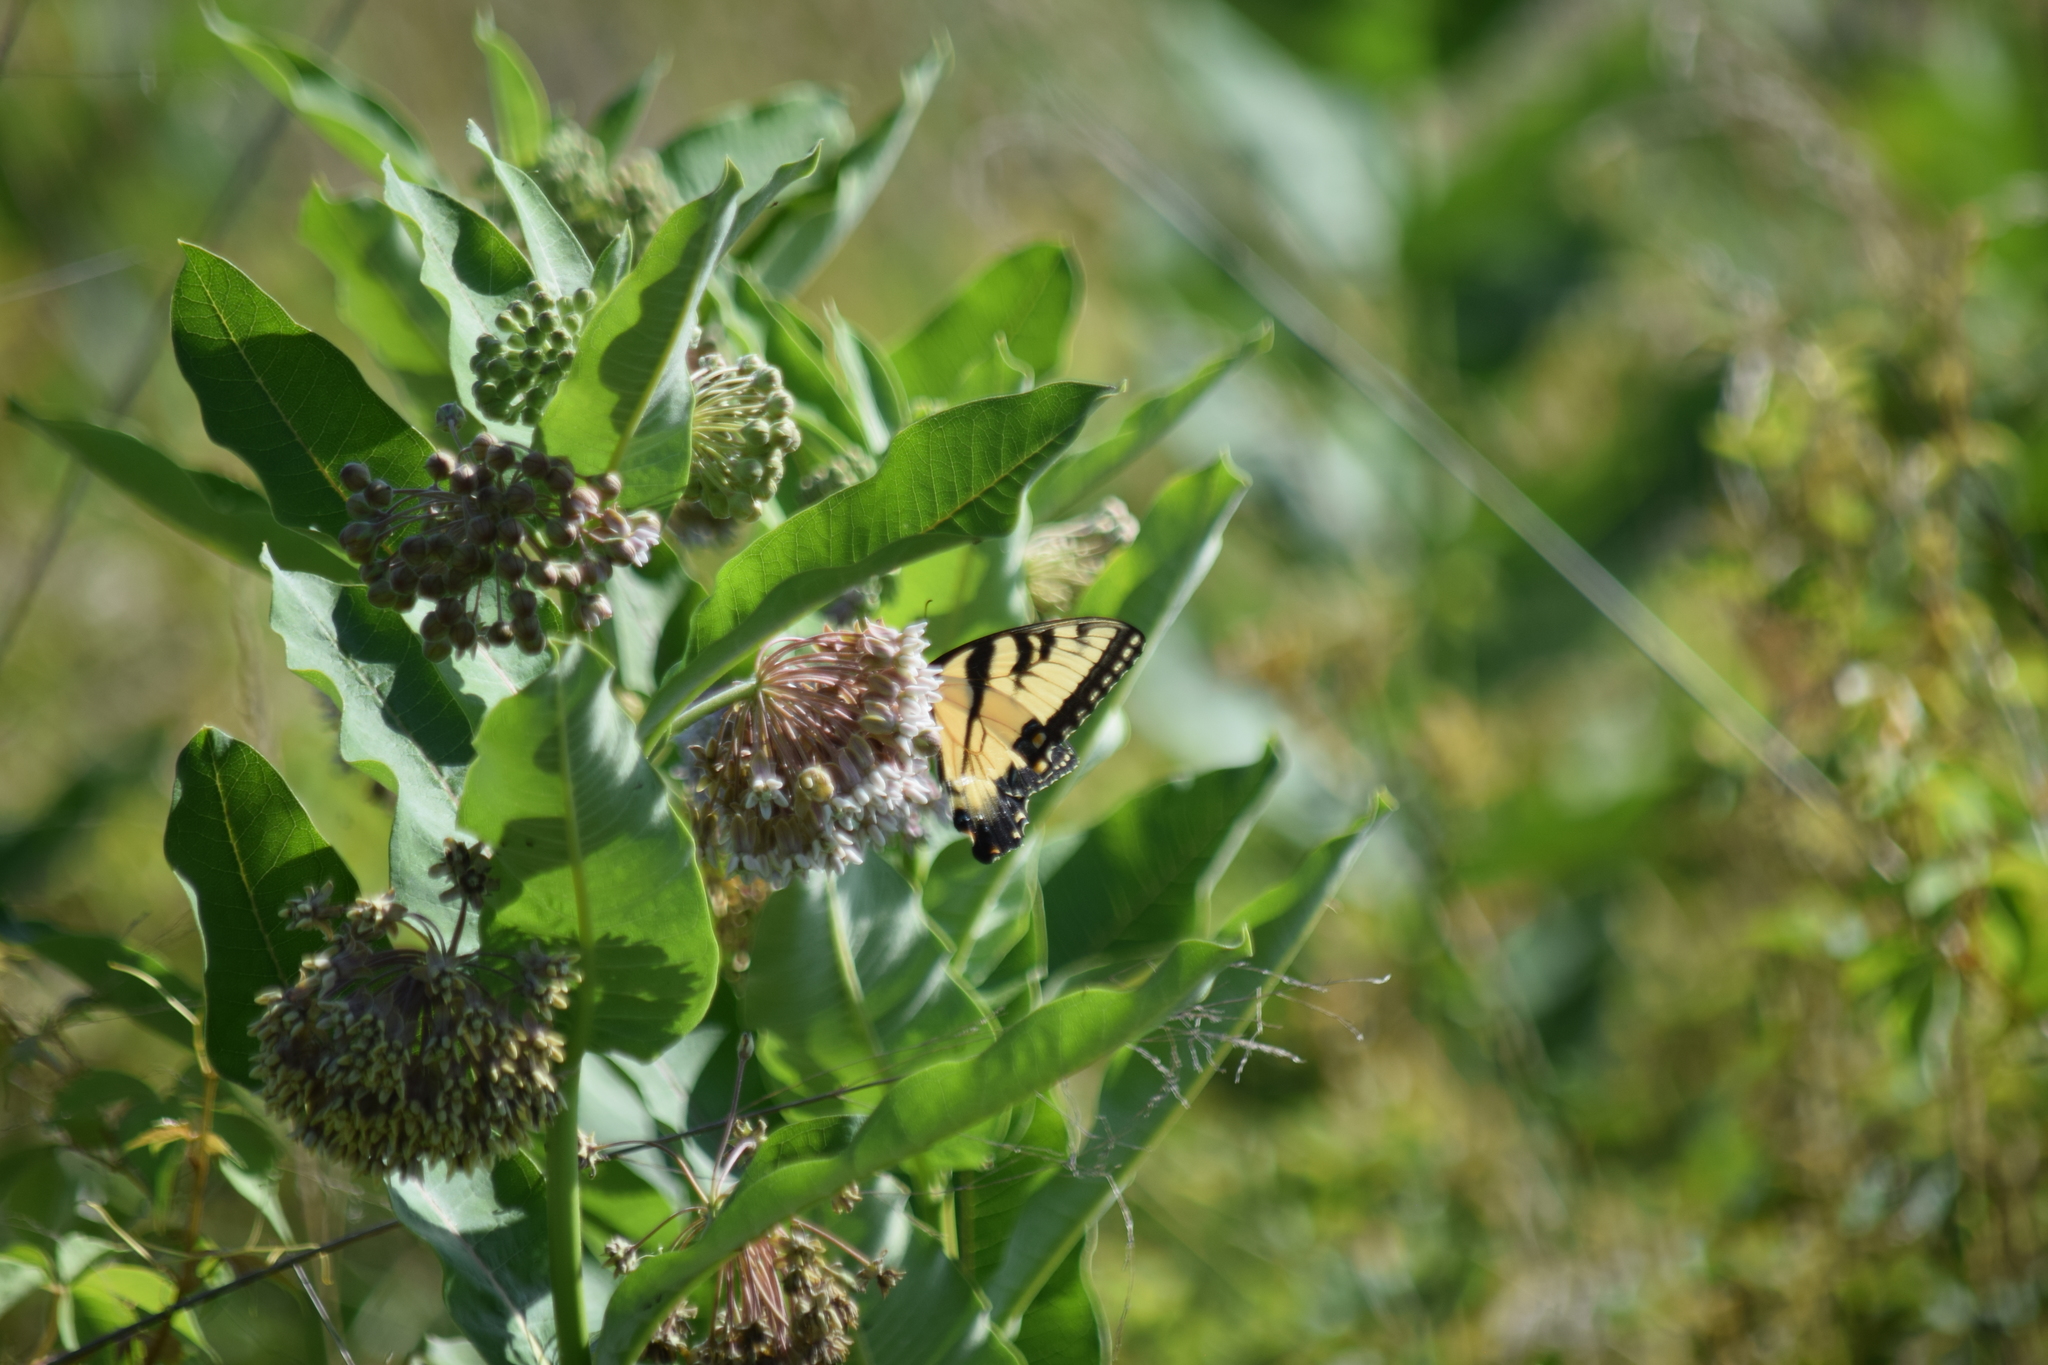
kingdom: Animalia
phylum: Arthropoda
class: Insecta
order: Lepidoptera
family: Papilionidae
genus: Papilio
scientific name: Papilio glaucus
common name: Tiger swallowtail
